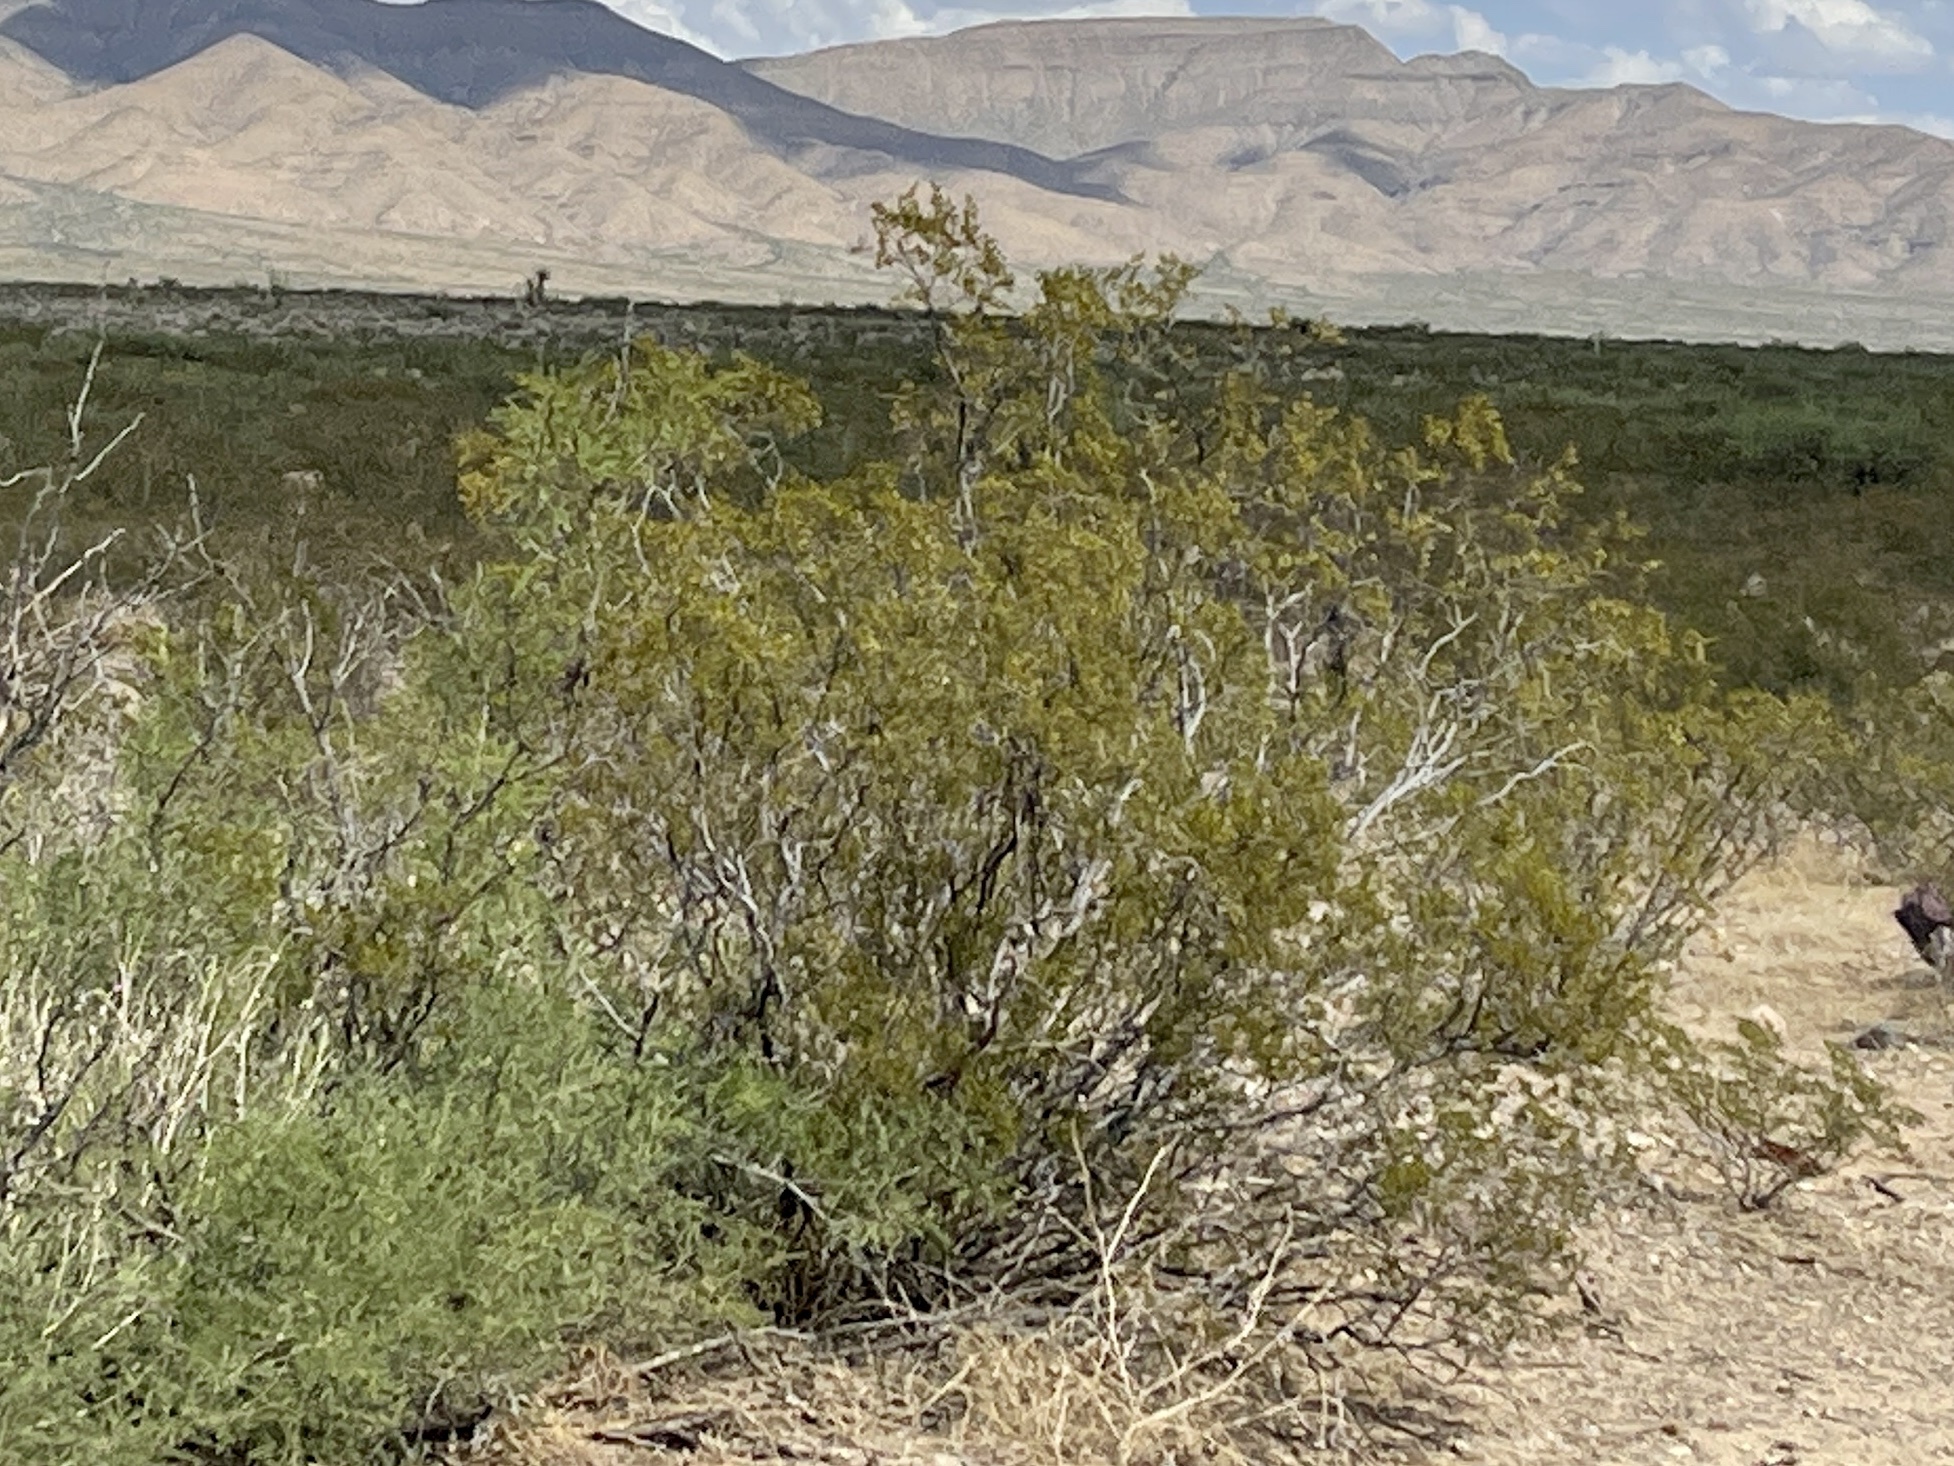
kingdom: Plantae
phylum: Tracheophyta
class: Magnoliopsida
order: Zygophyllales
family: Zygophyllaceae
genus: Larrea
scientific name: Larrea tridentata
